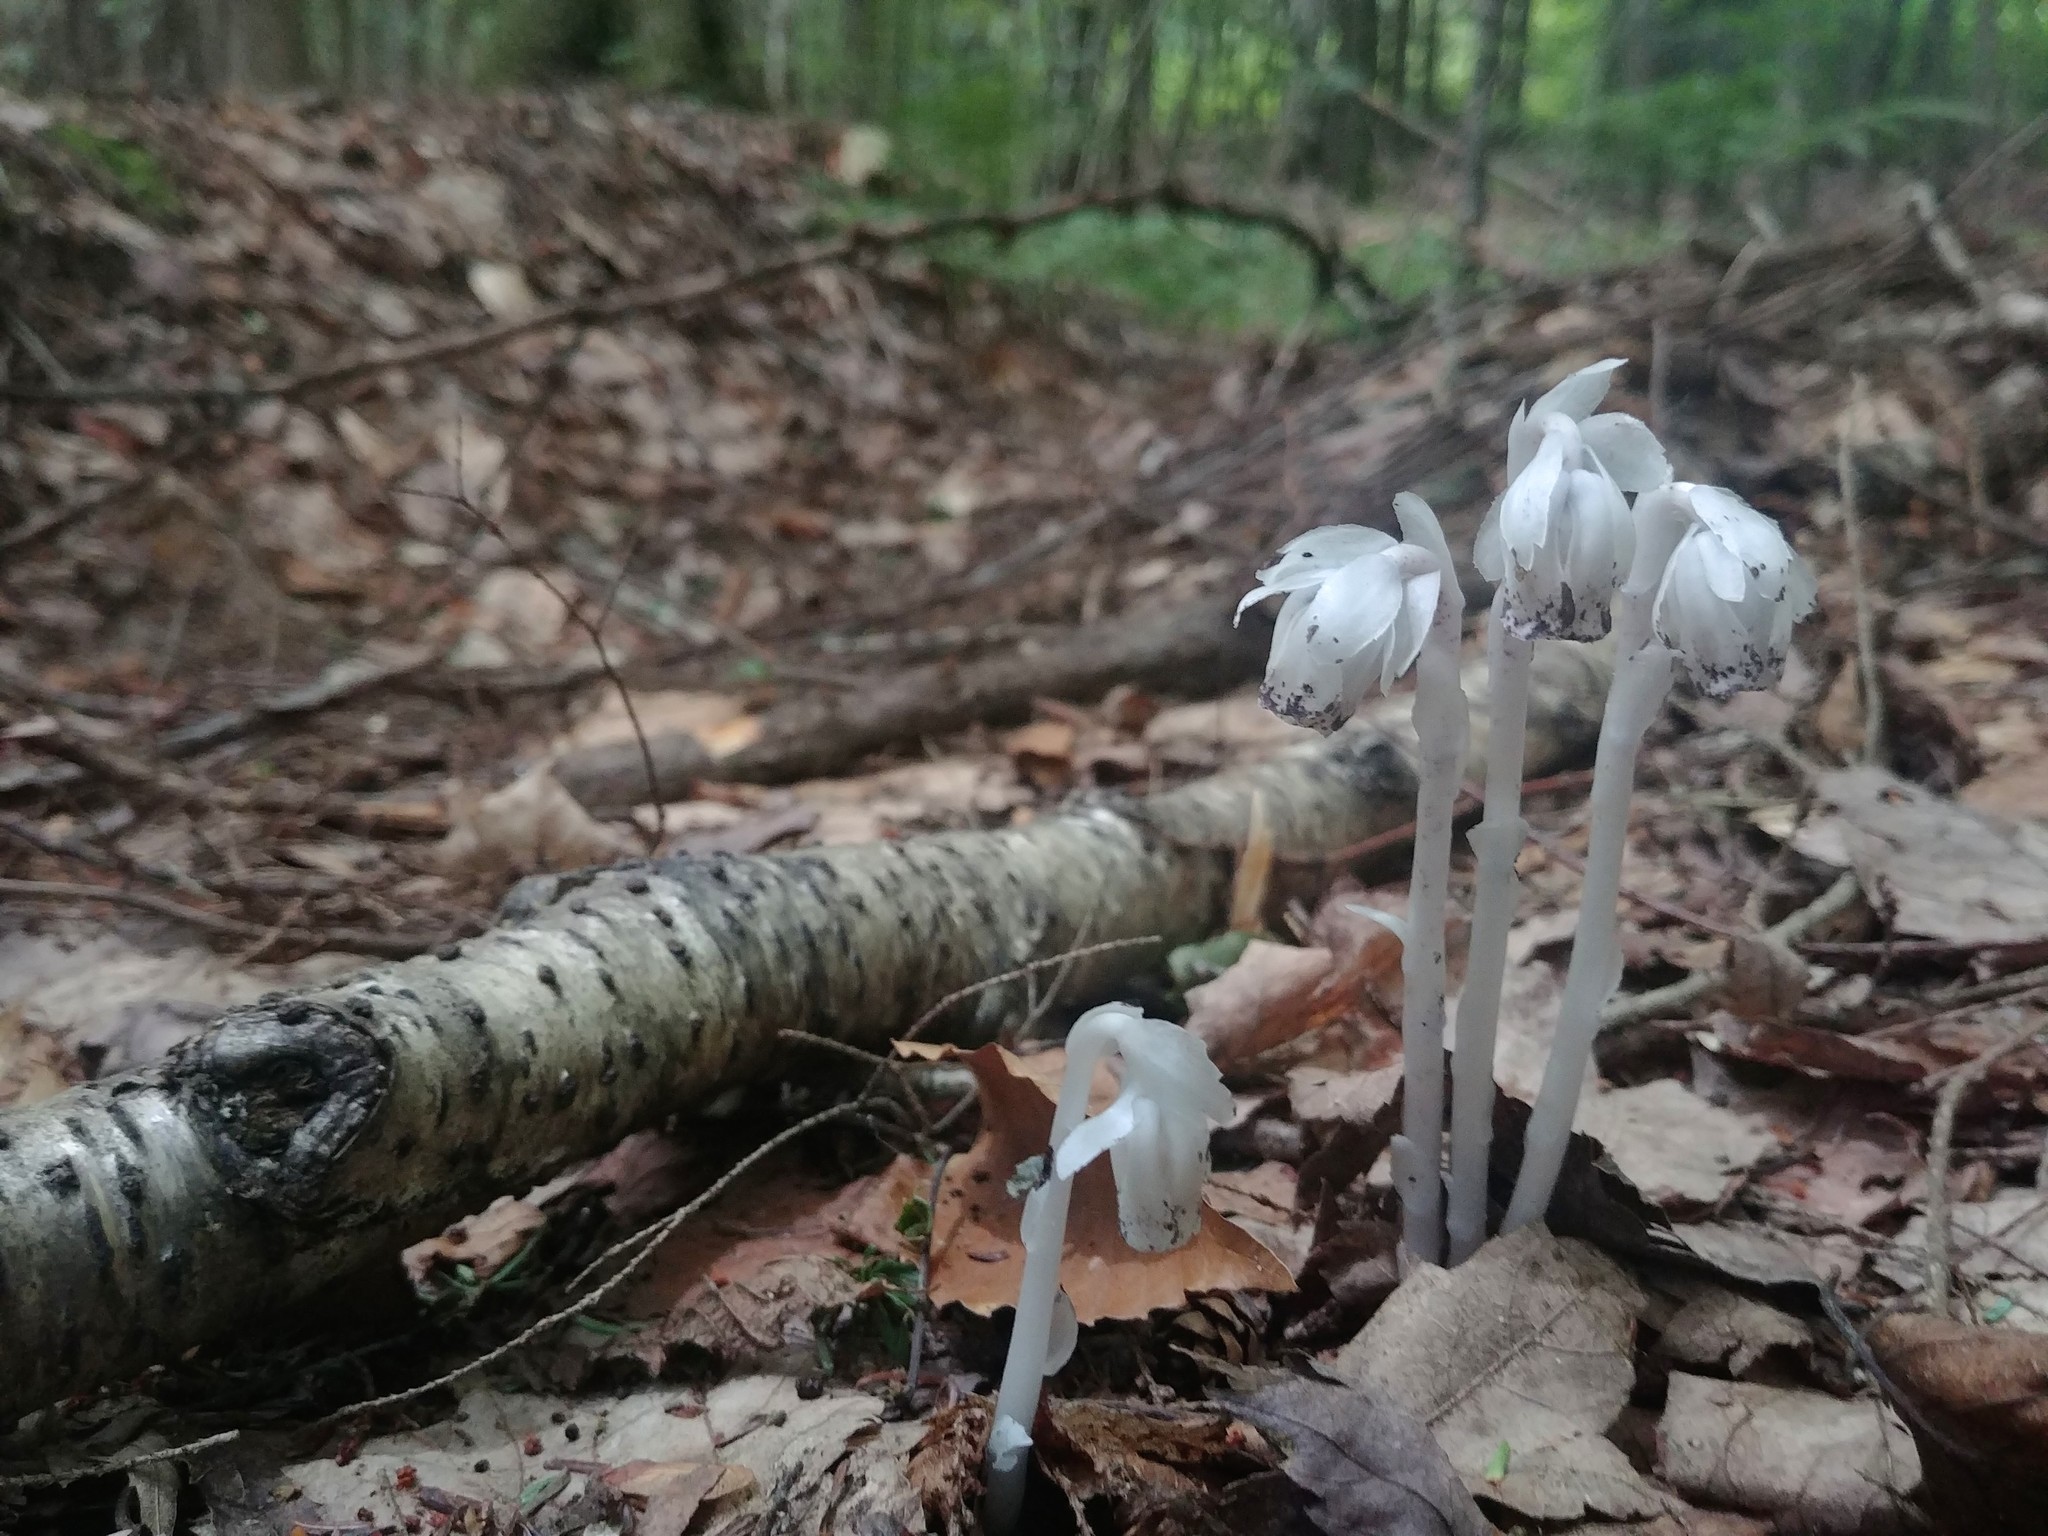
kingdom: Plantae
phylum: Tracheophyta
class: Magnoliopsida
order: Ericales
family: Ericaceae
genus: Monotropa
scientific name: Monotropa uniflora
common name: Convulsion root
